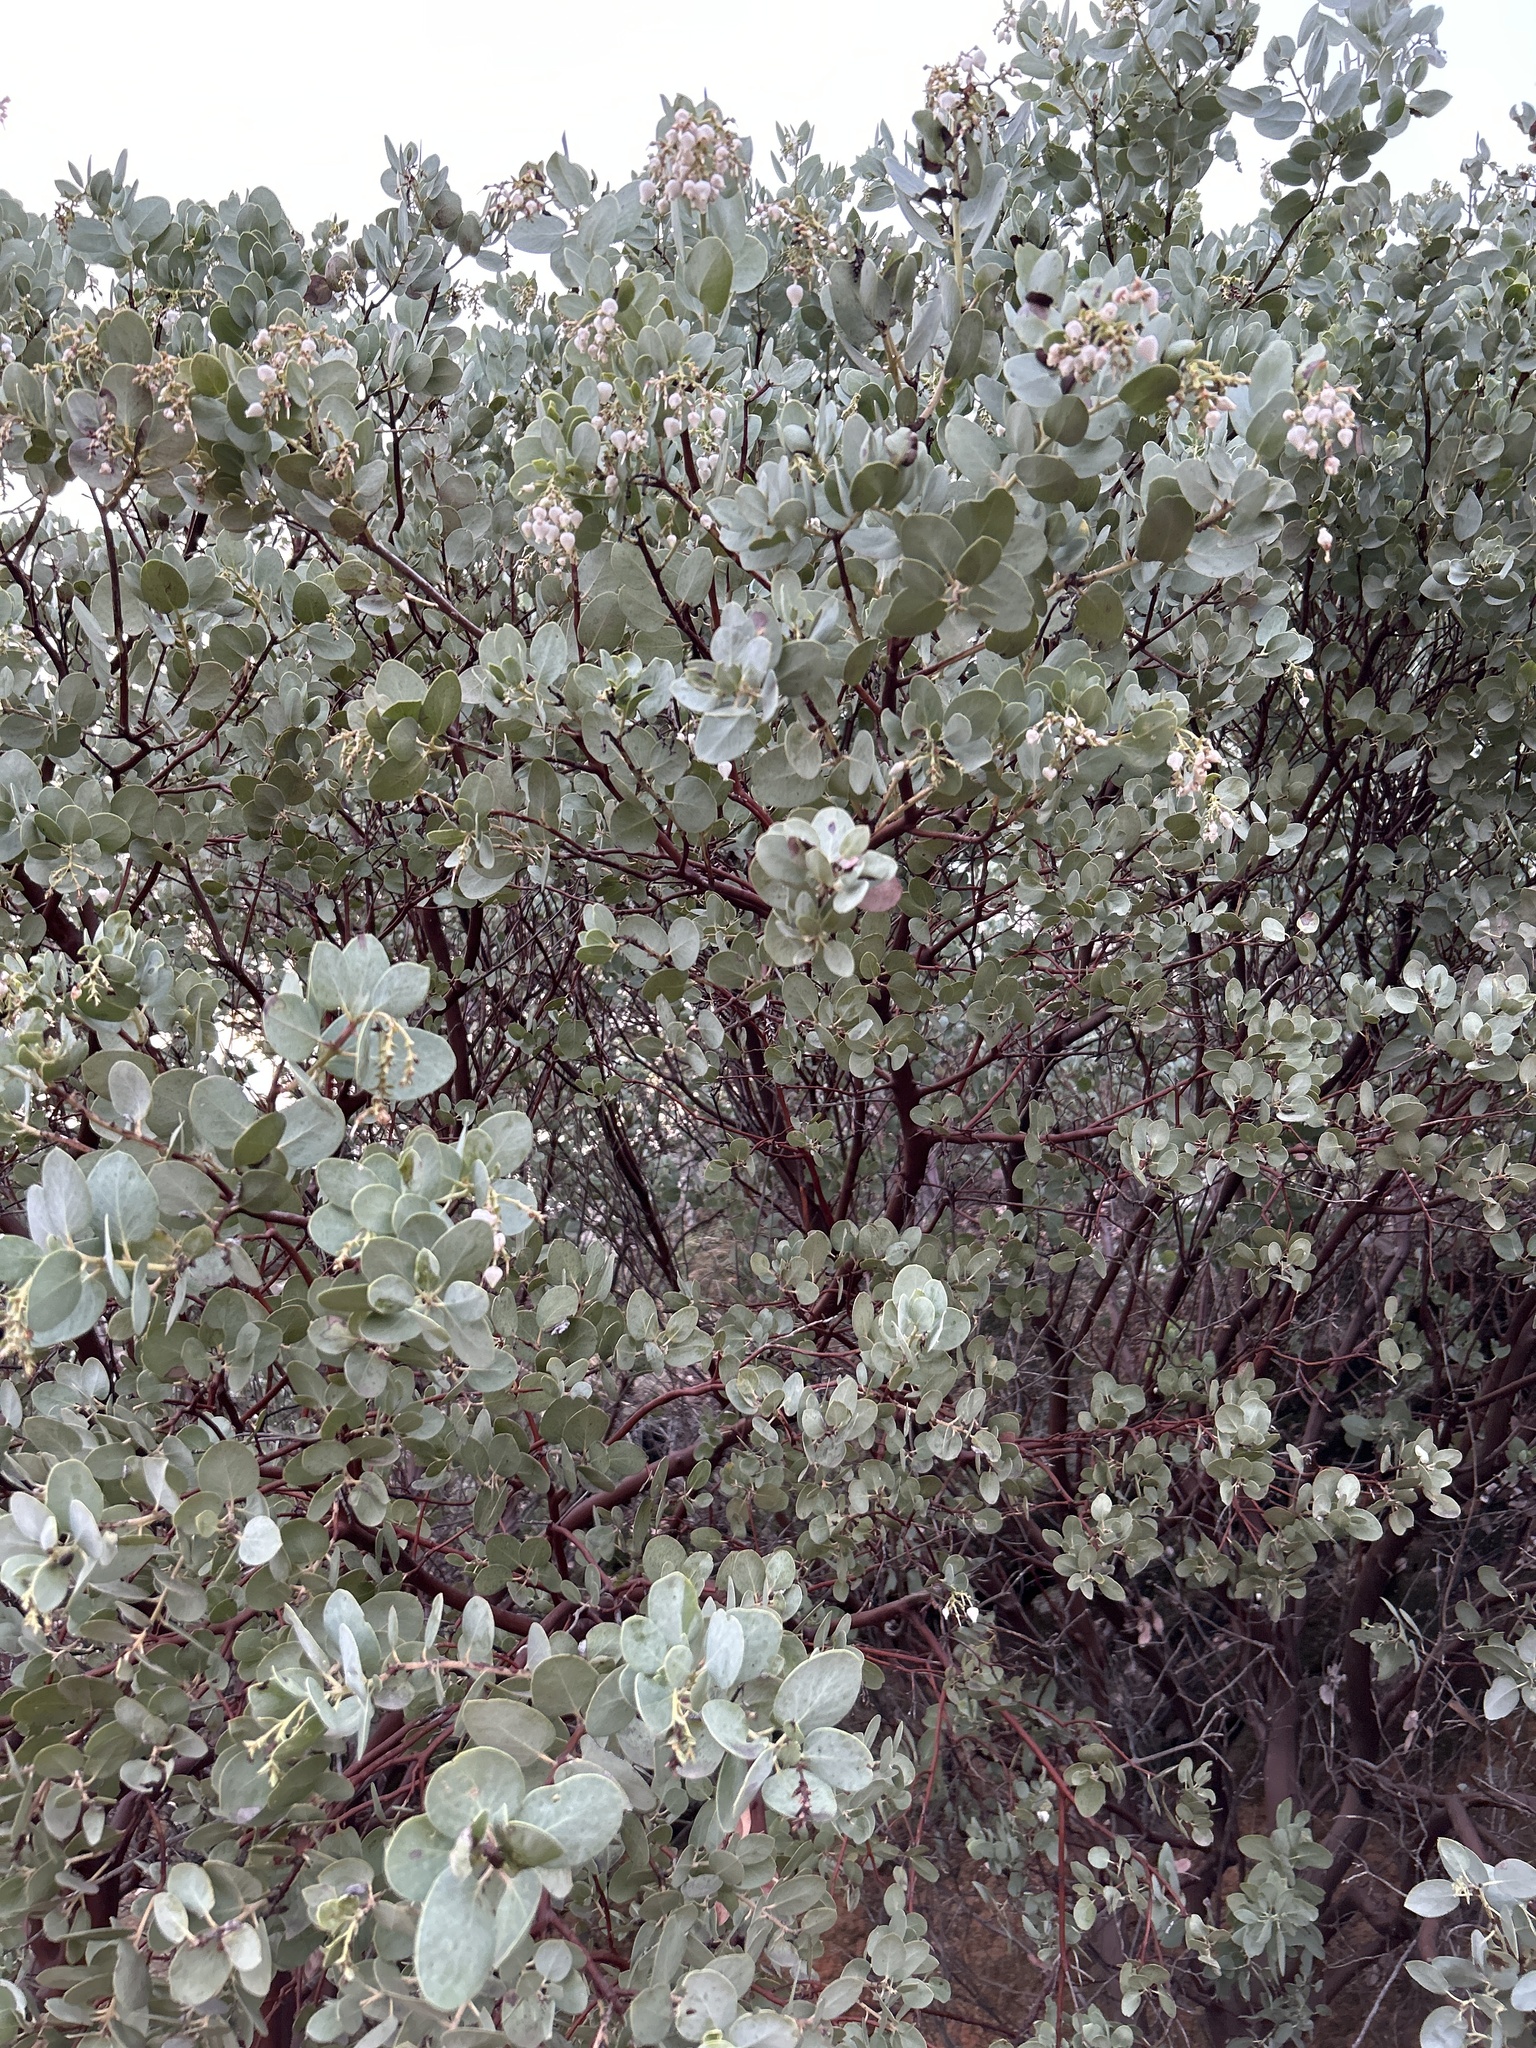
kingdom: Plantae
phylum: Tracheophyta
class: Magnoliopsida
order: Ericales
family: Ericaceae
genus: Arctostaphylos
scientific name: Arctostaphylos glauca
